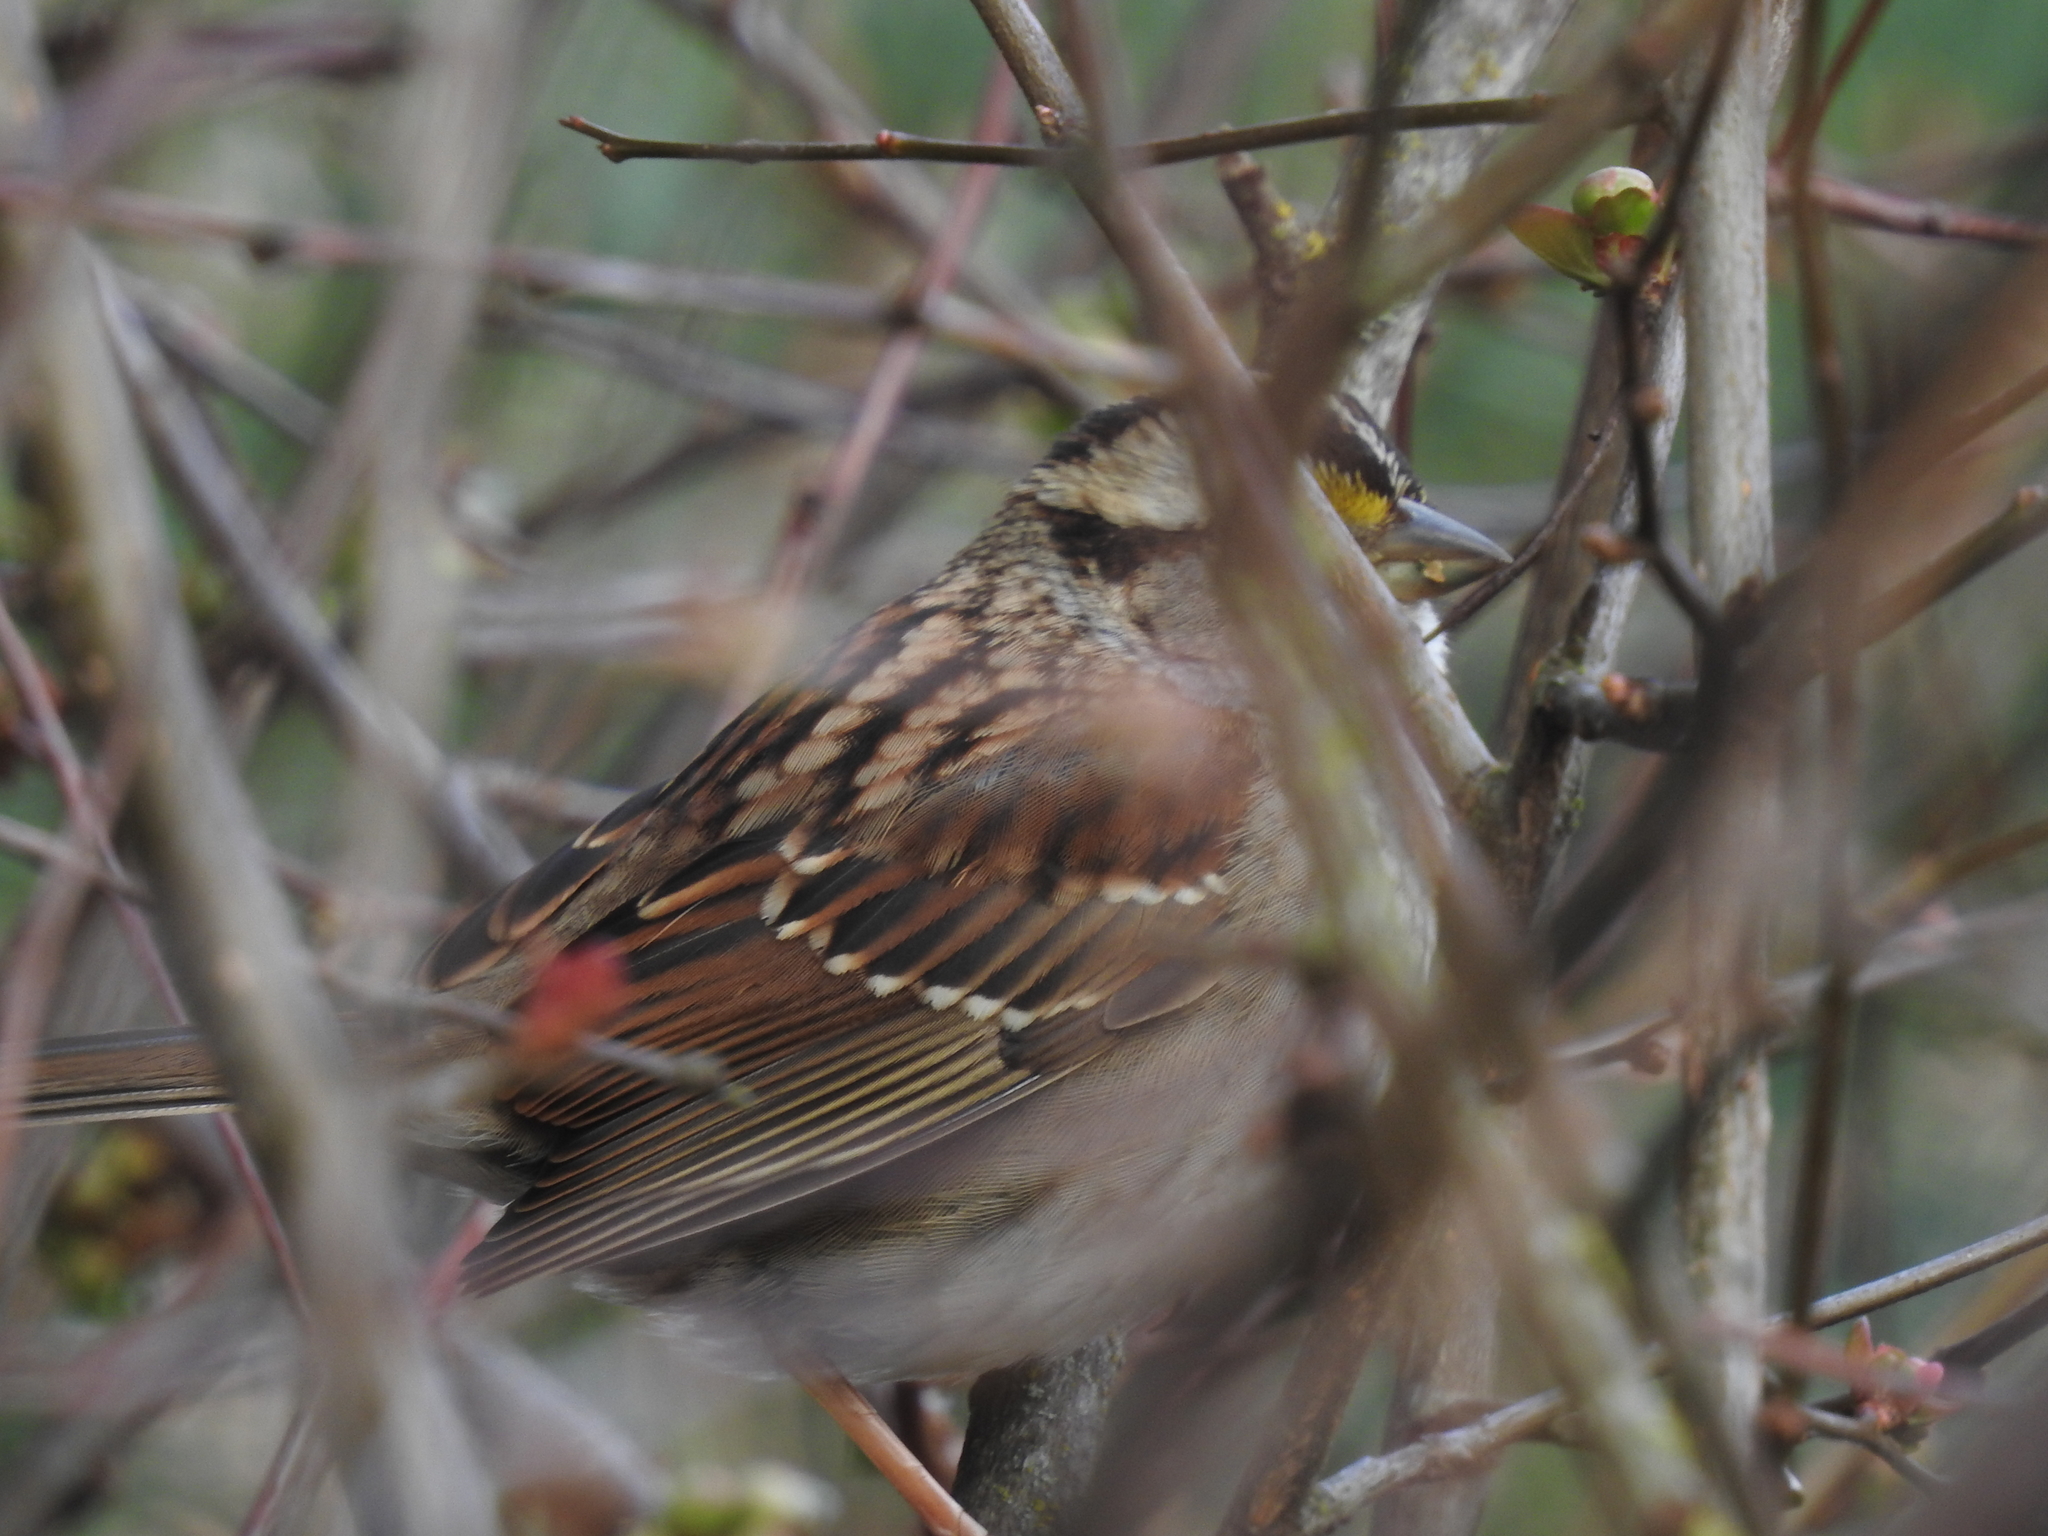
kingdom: Animalia
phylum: Chordata
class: Aves
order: Passeriformes
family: Passerellidae
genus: Zonotrichia
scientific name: Zonotrichia albicollis
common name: White-throated sparrow
